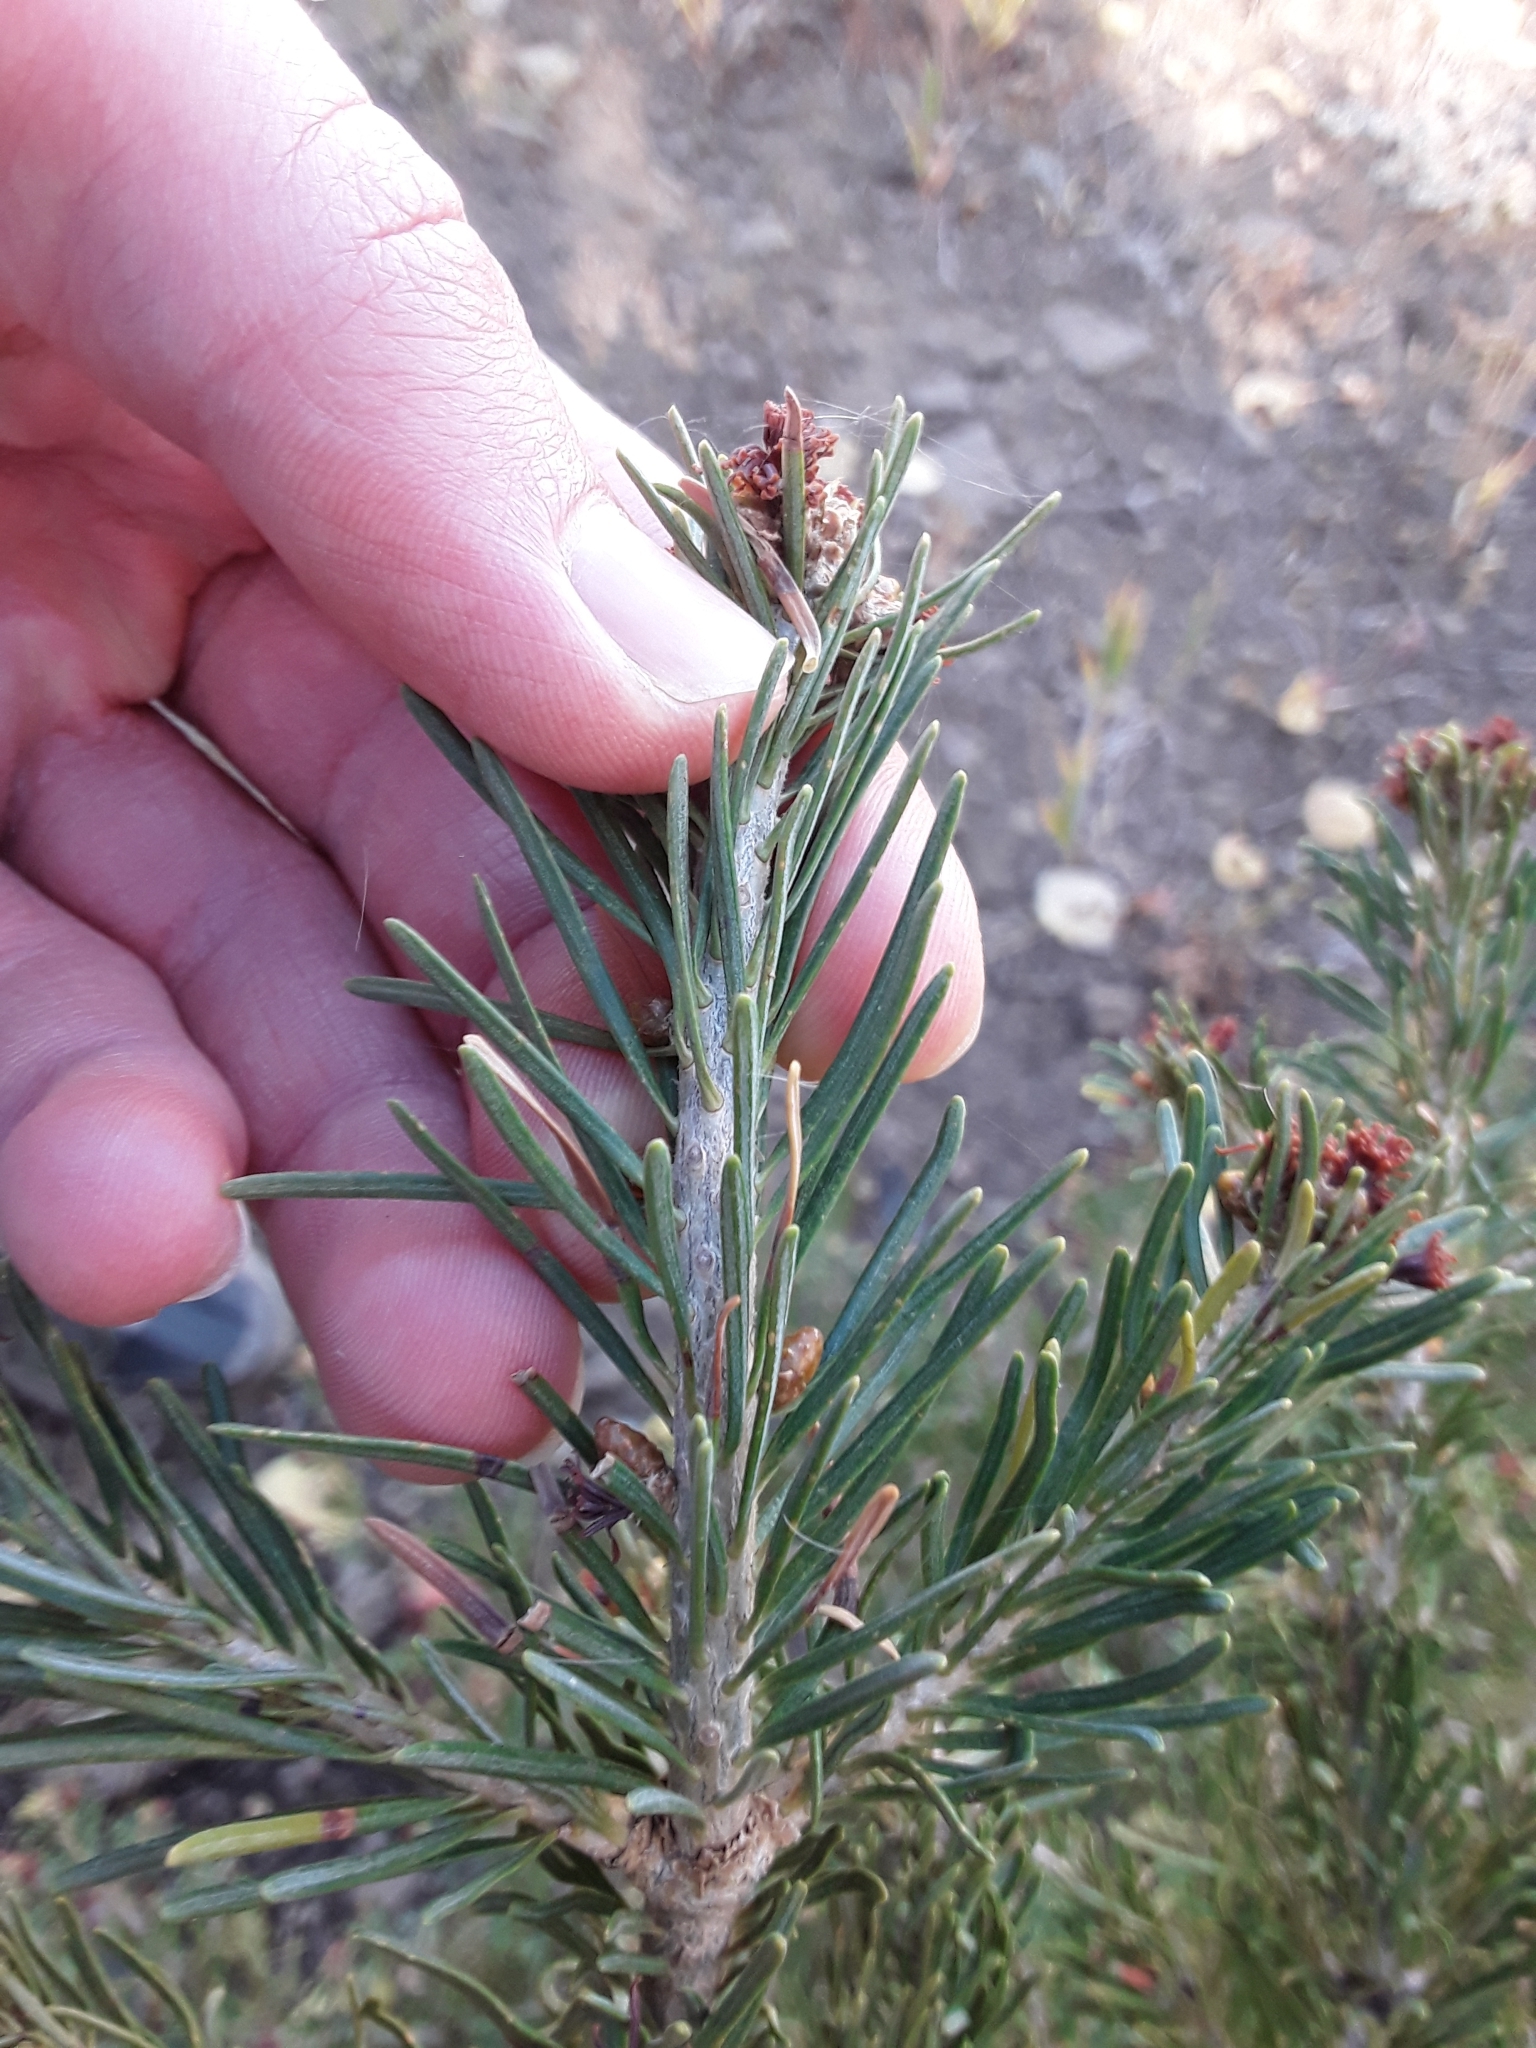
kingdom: Plantae
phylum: Tracheophyta
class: Pinopsida
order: Pinales
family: Pinaceae
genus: Abies
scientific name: Abies lasiocarpa
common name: Subalpine fir
